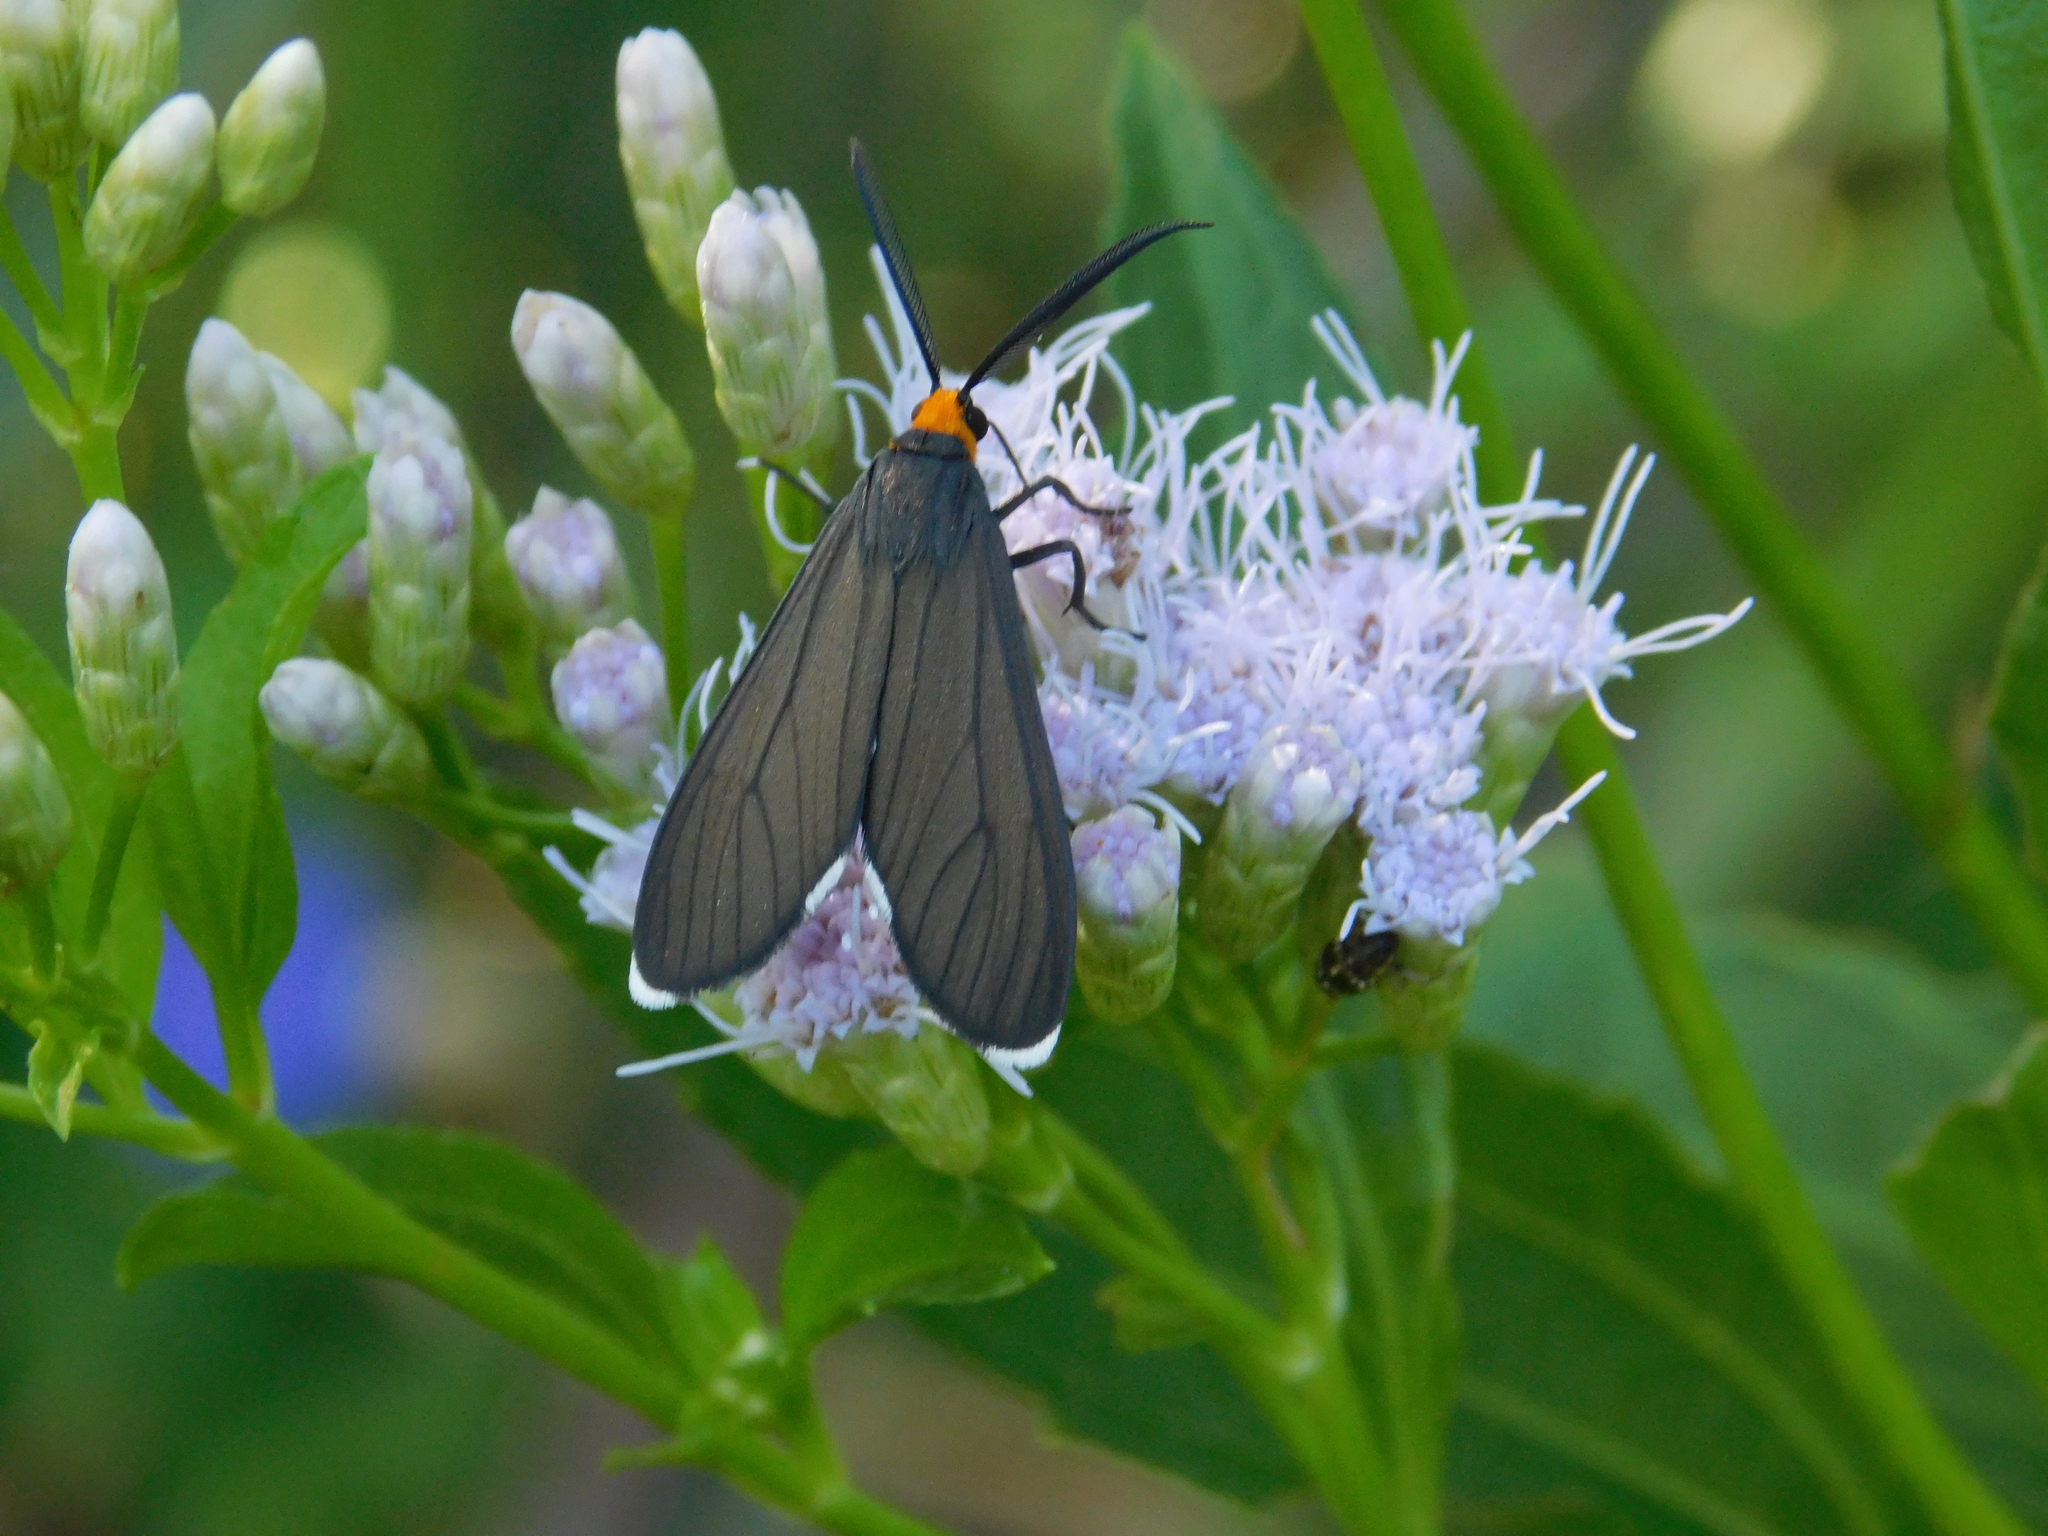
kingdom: Animalia
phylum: Arthropoda
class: Insecta
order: Lepidoptera
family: Erebidae
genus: Ctenucha
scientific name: Ctenucha rubriceps
